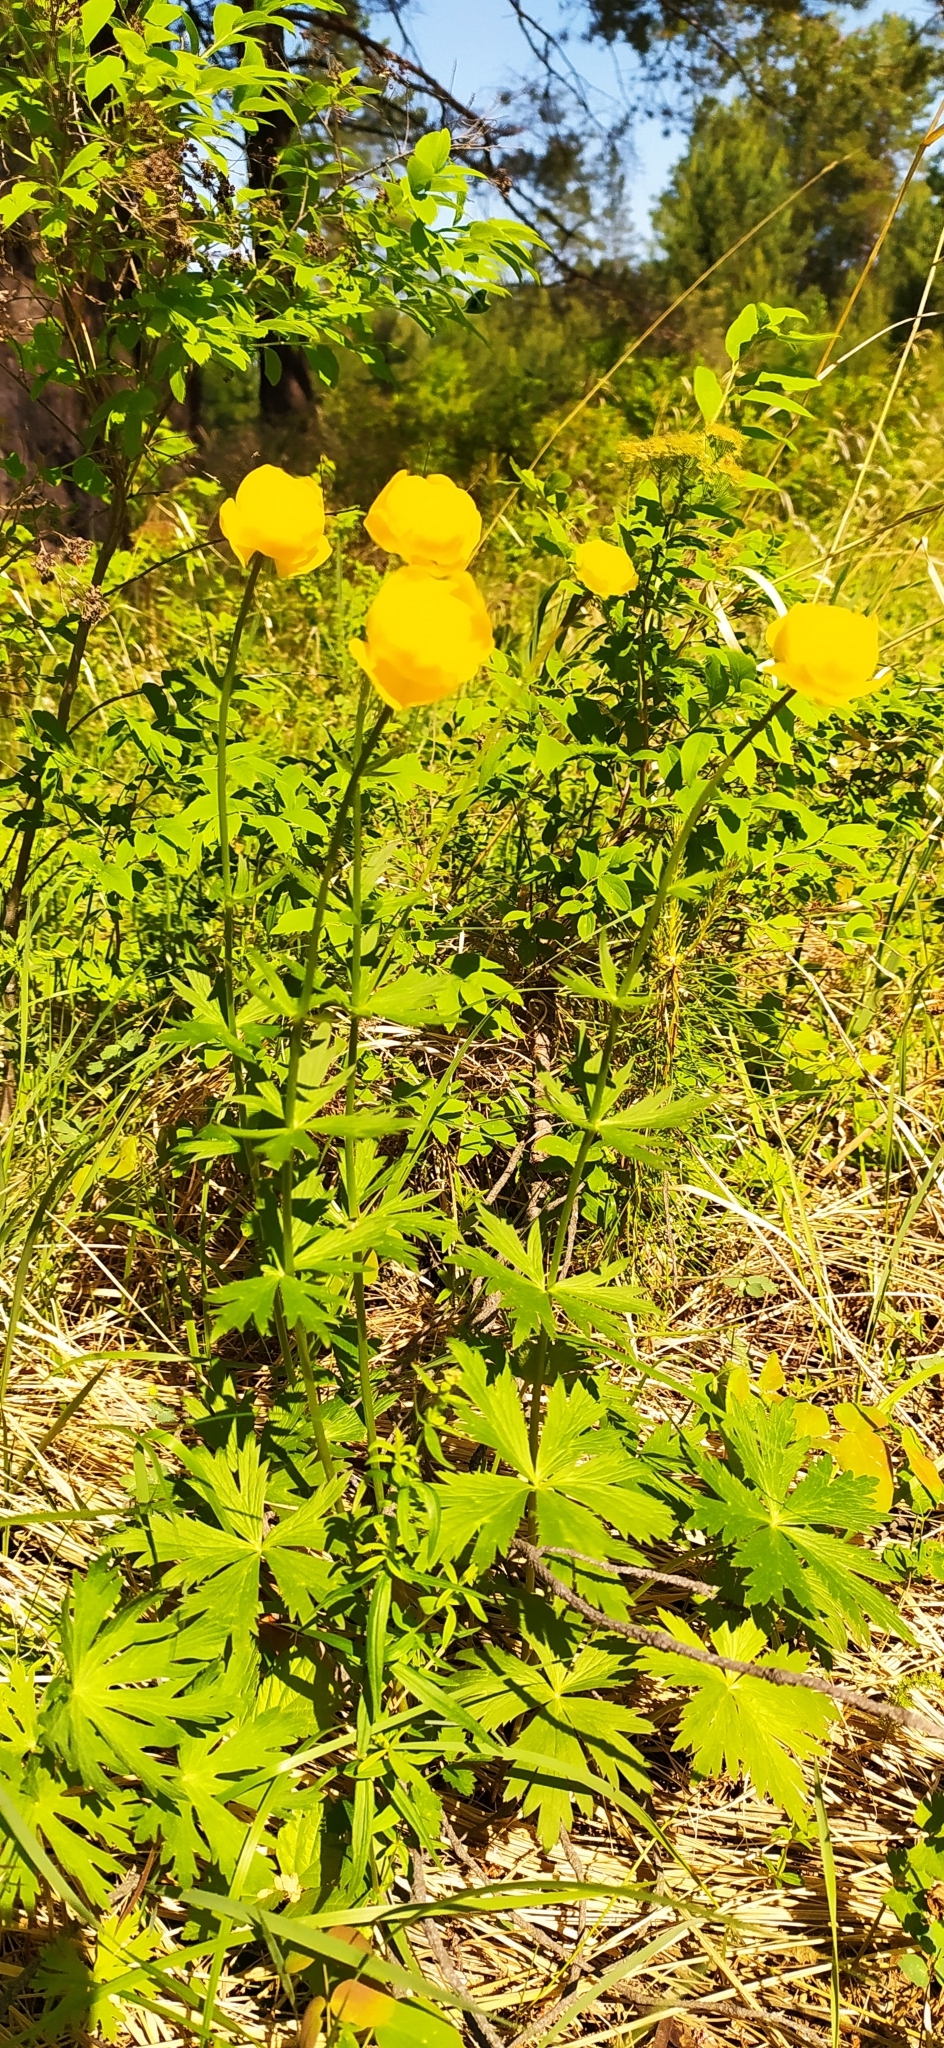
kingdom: Plantae
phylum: Tracheophyta
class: Magnoliopsida
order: Ranunculales
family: Ranunculaceae
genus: Trollius
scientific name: Trollius europaeus
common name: European globeflower
